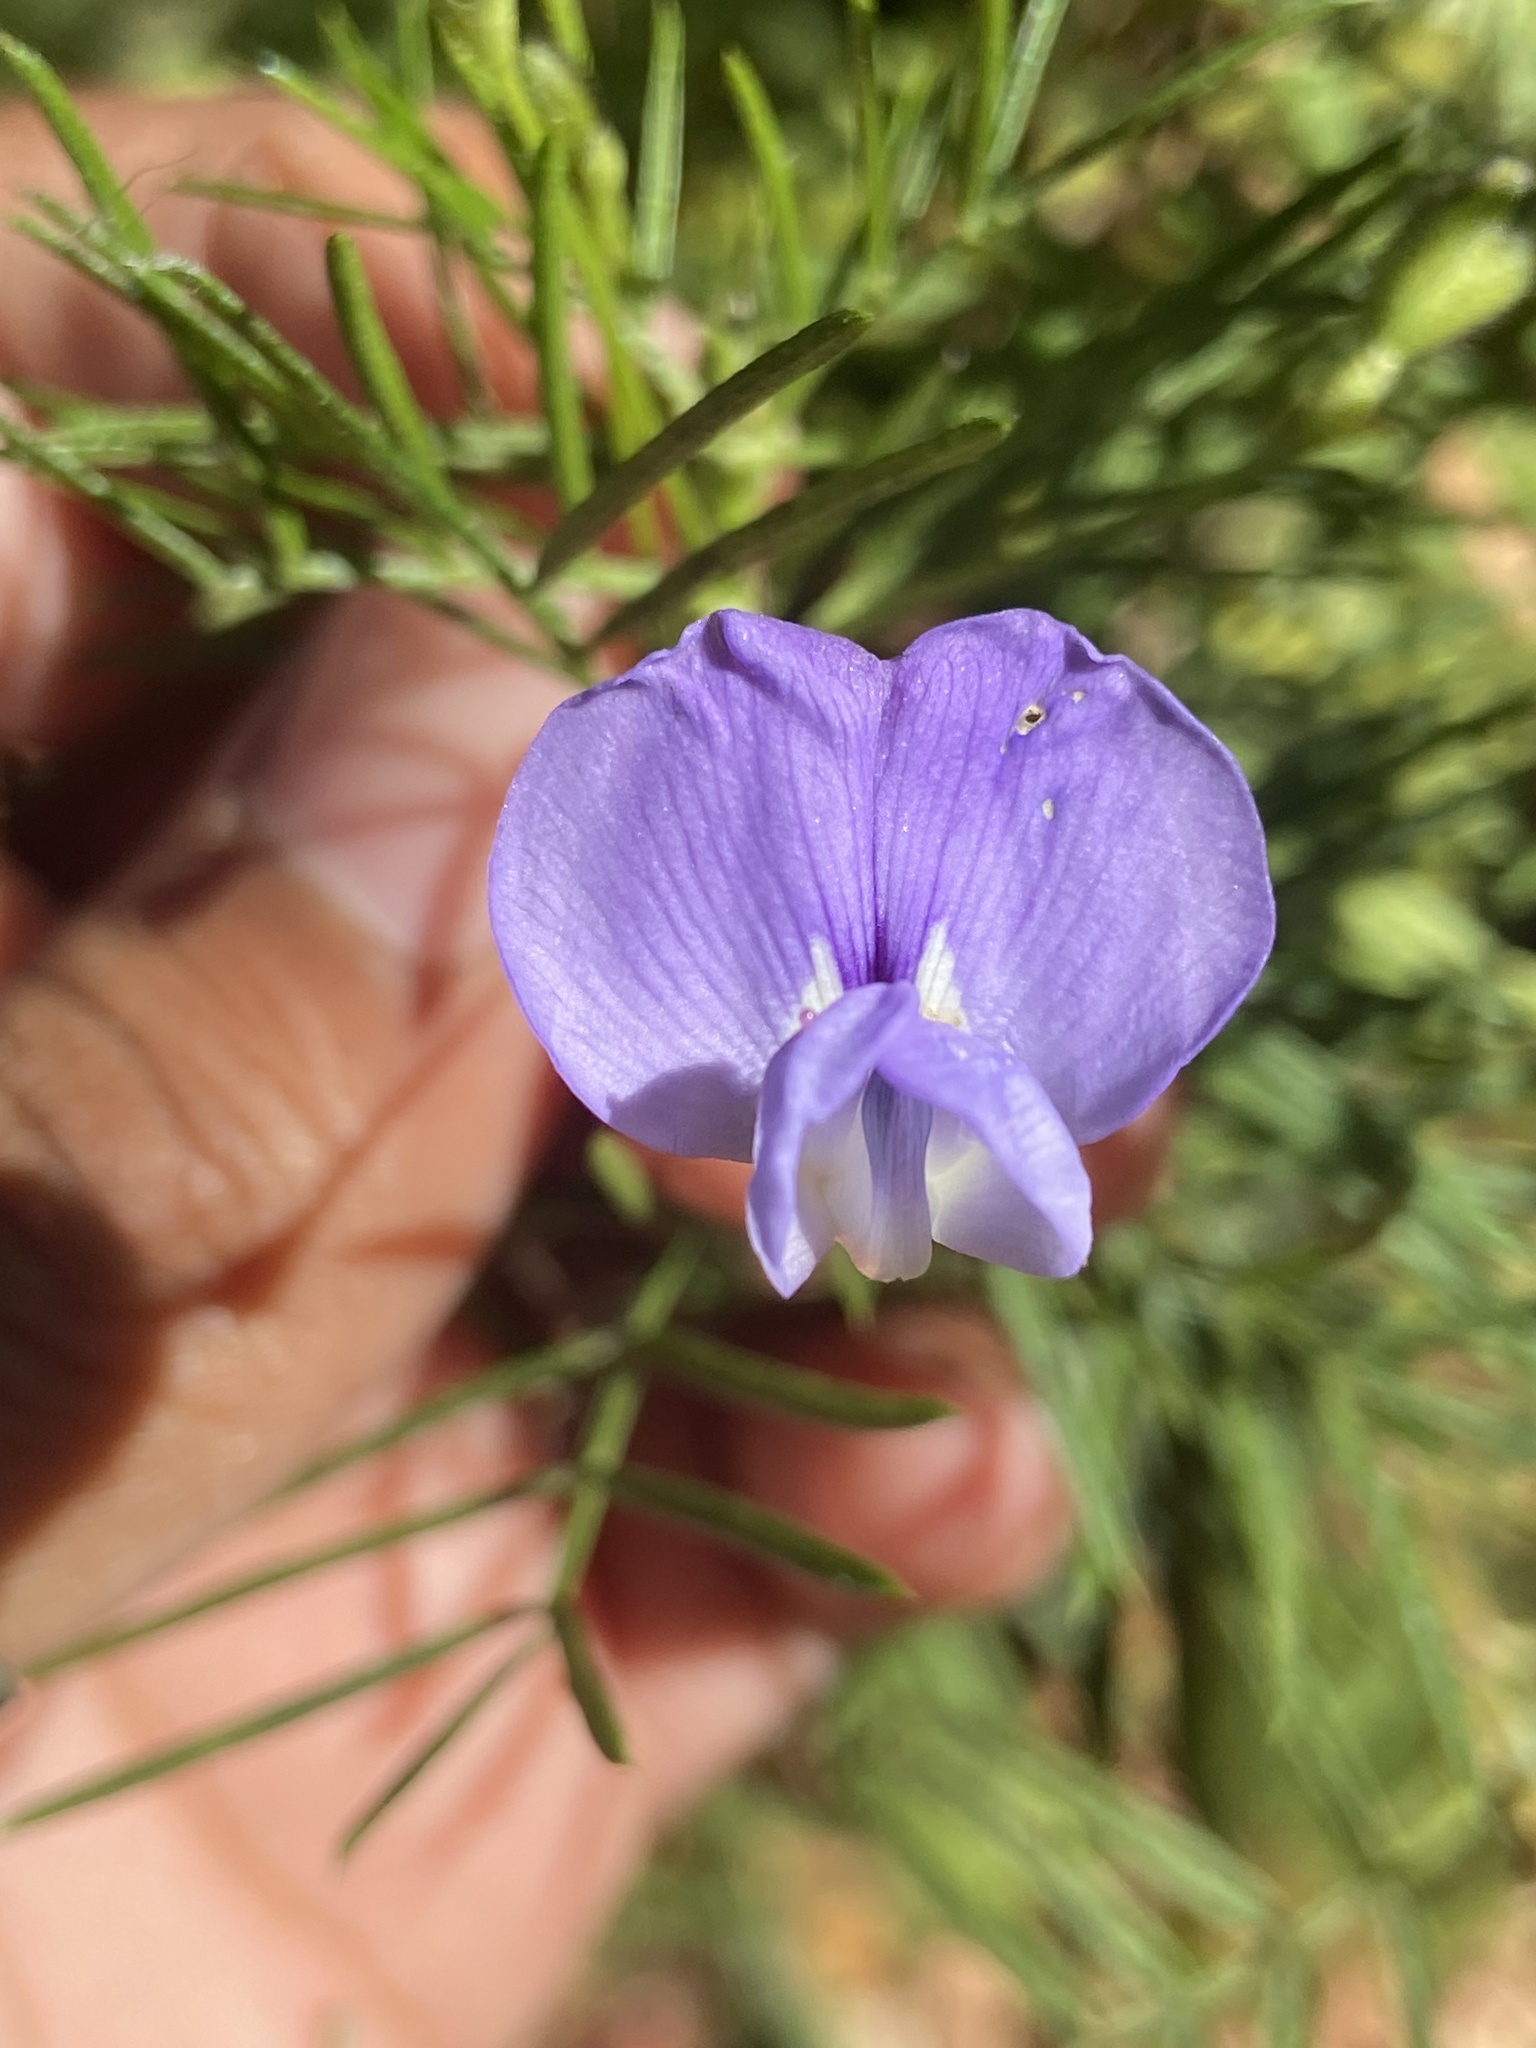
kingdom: Plantae
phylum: Tracheophyta
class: Magnoliopsida
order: Fabales
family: Fabaceae
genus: Psoralea
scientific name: Psoralea pinnata
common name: African scurfpea
